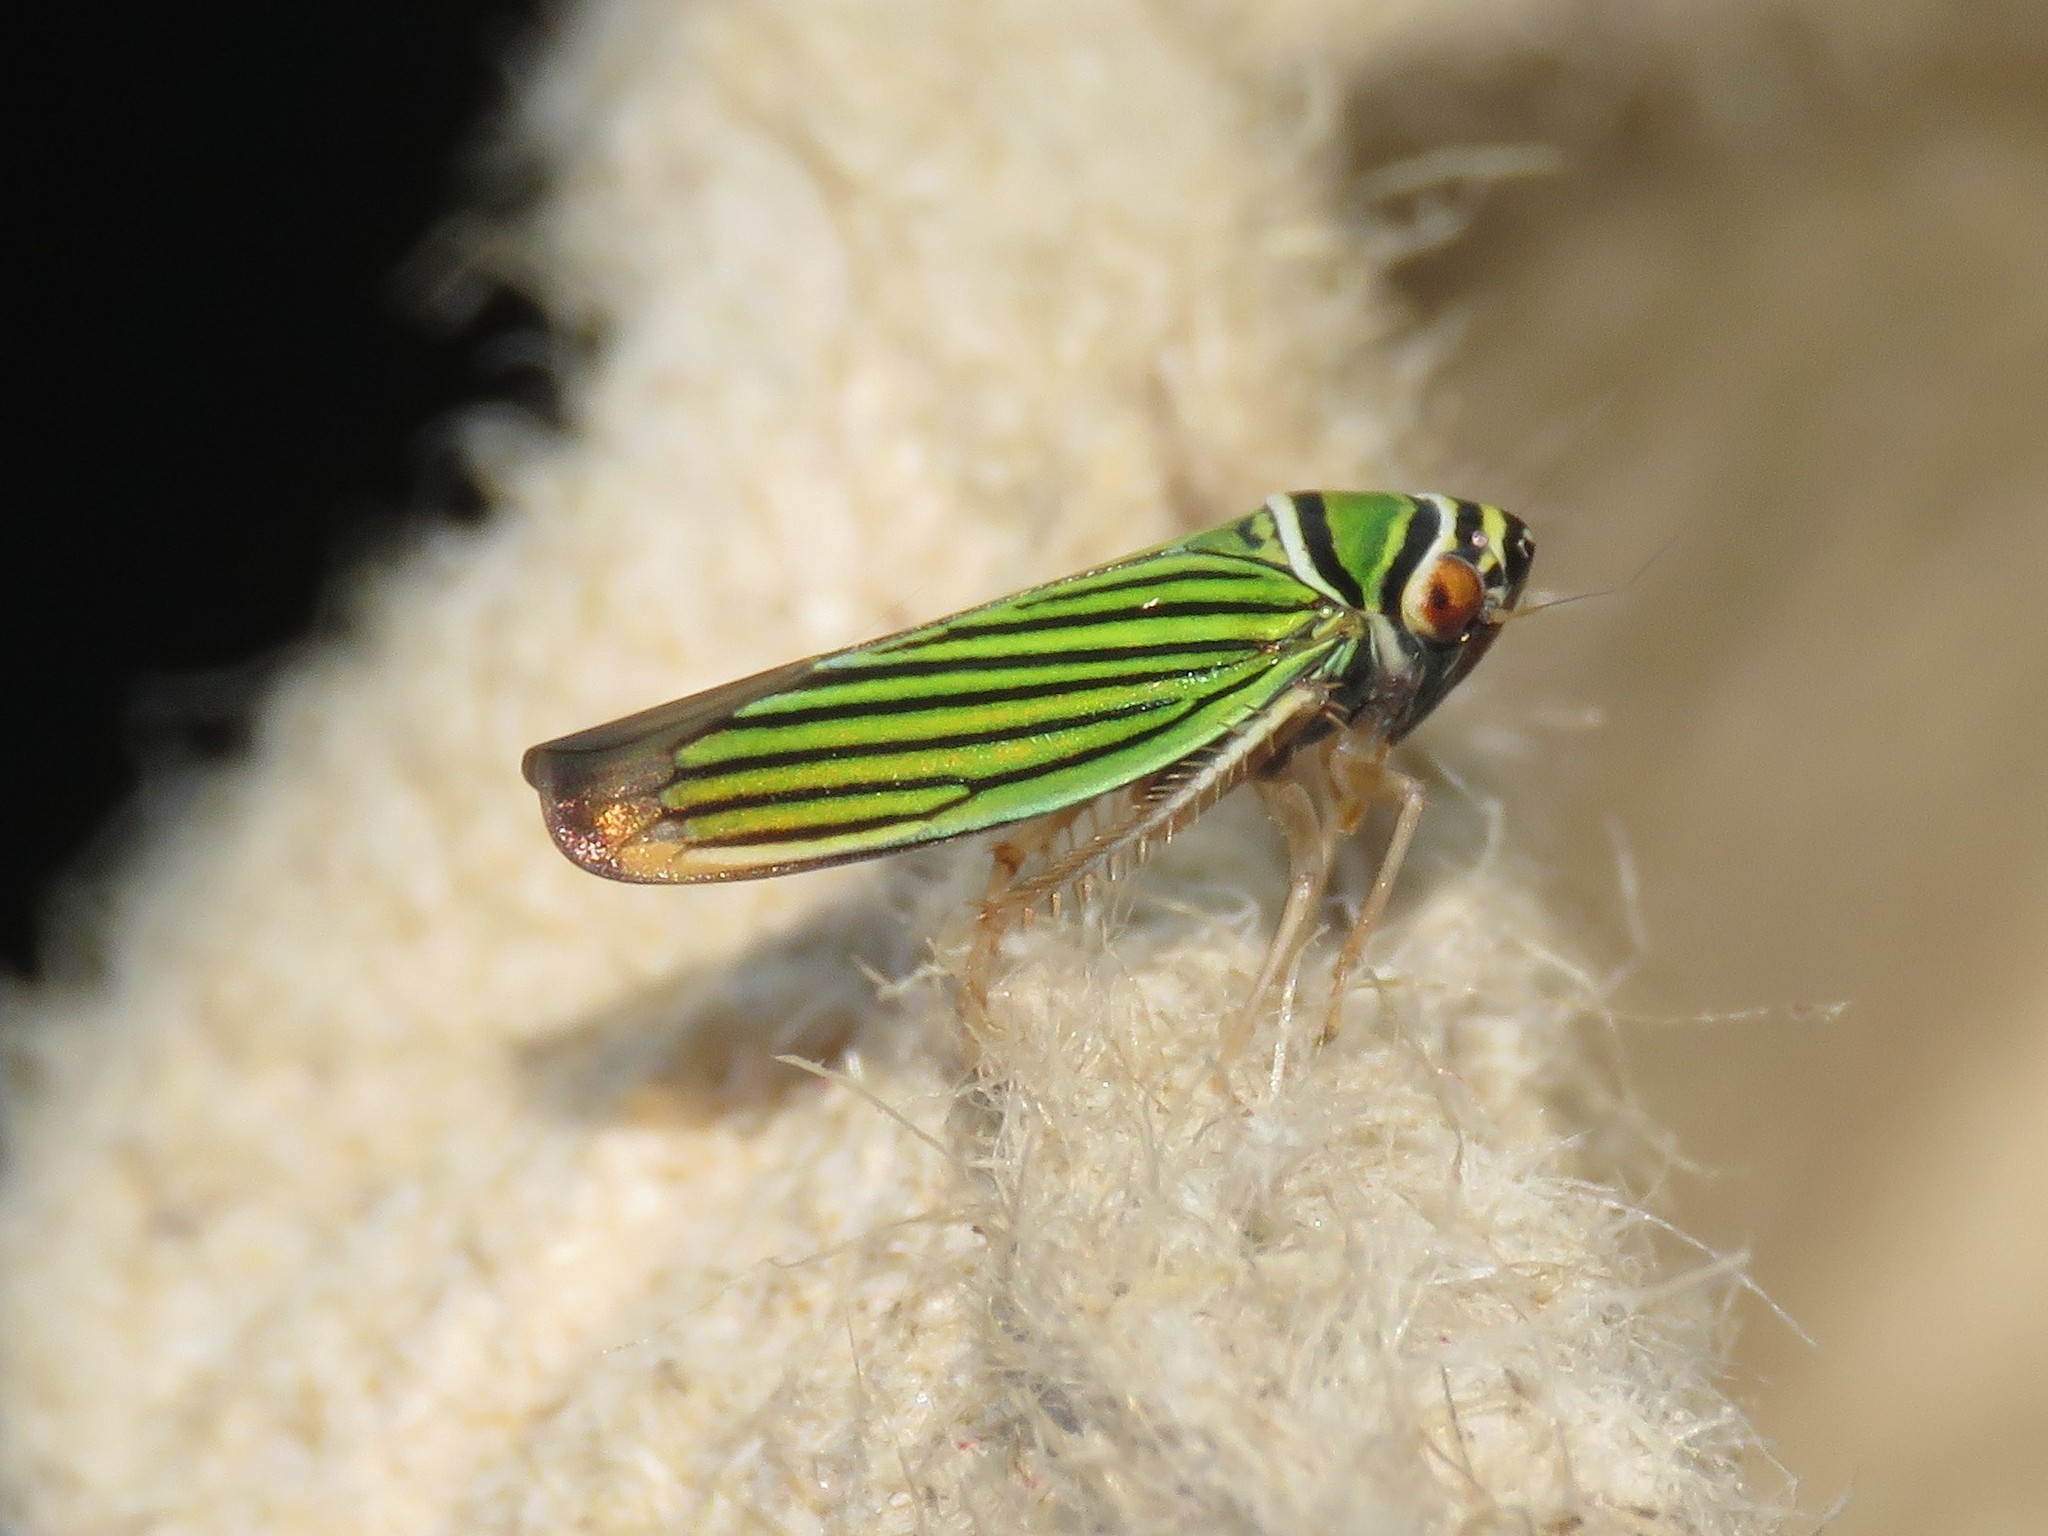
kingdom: Animalia
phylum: Arthropoda
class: Insecta
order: Hemiptera
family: Cicadellidae
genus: Tylozygus
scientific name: Tylozygus bifidus
